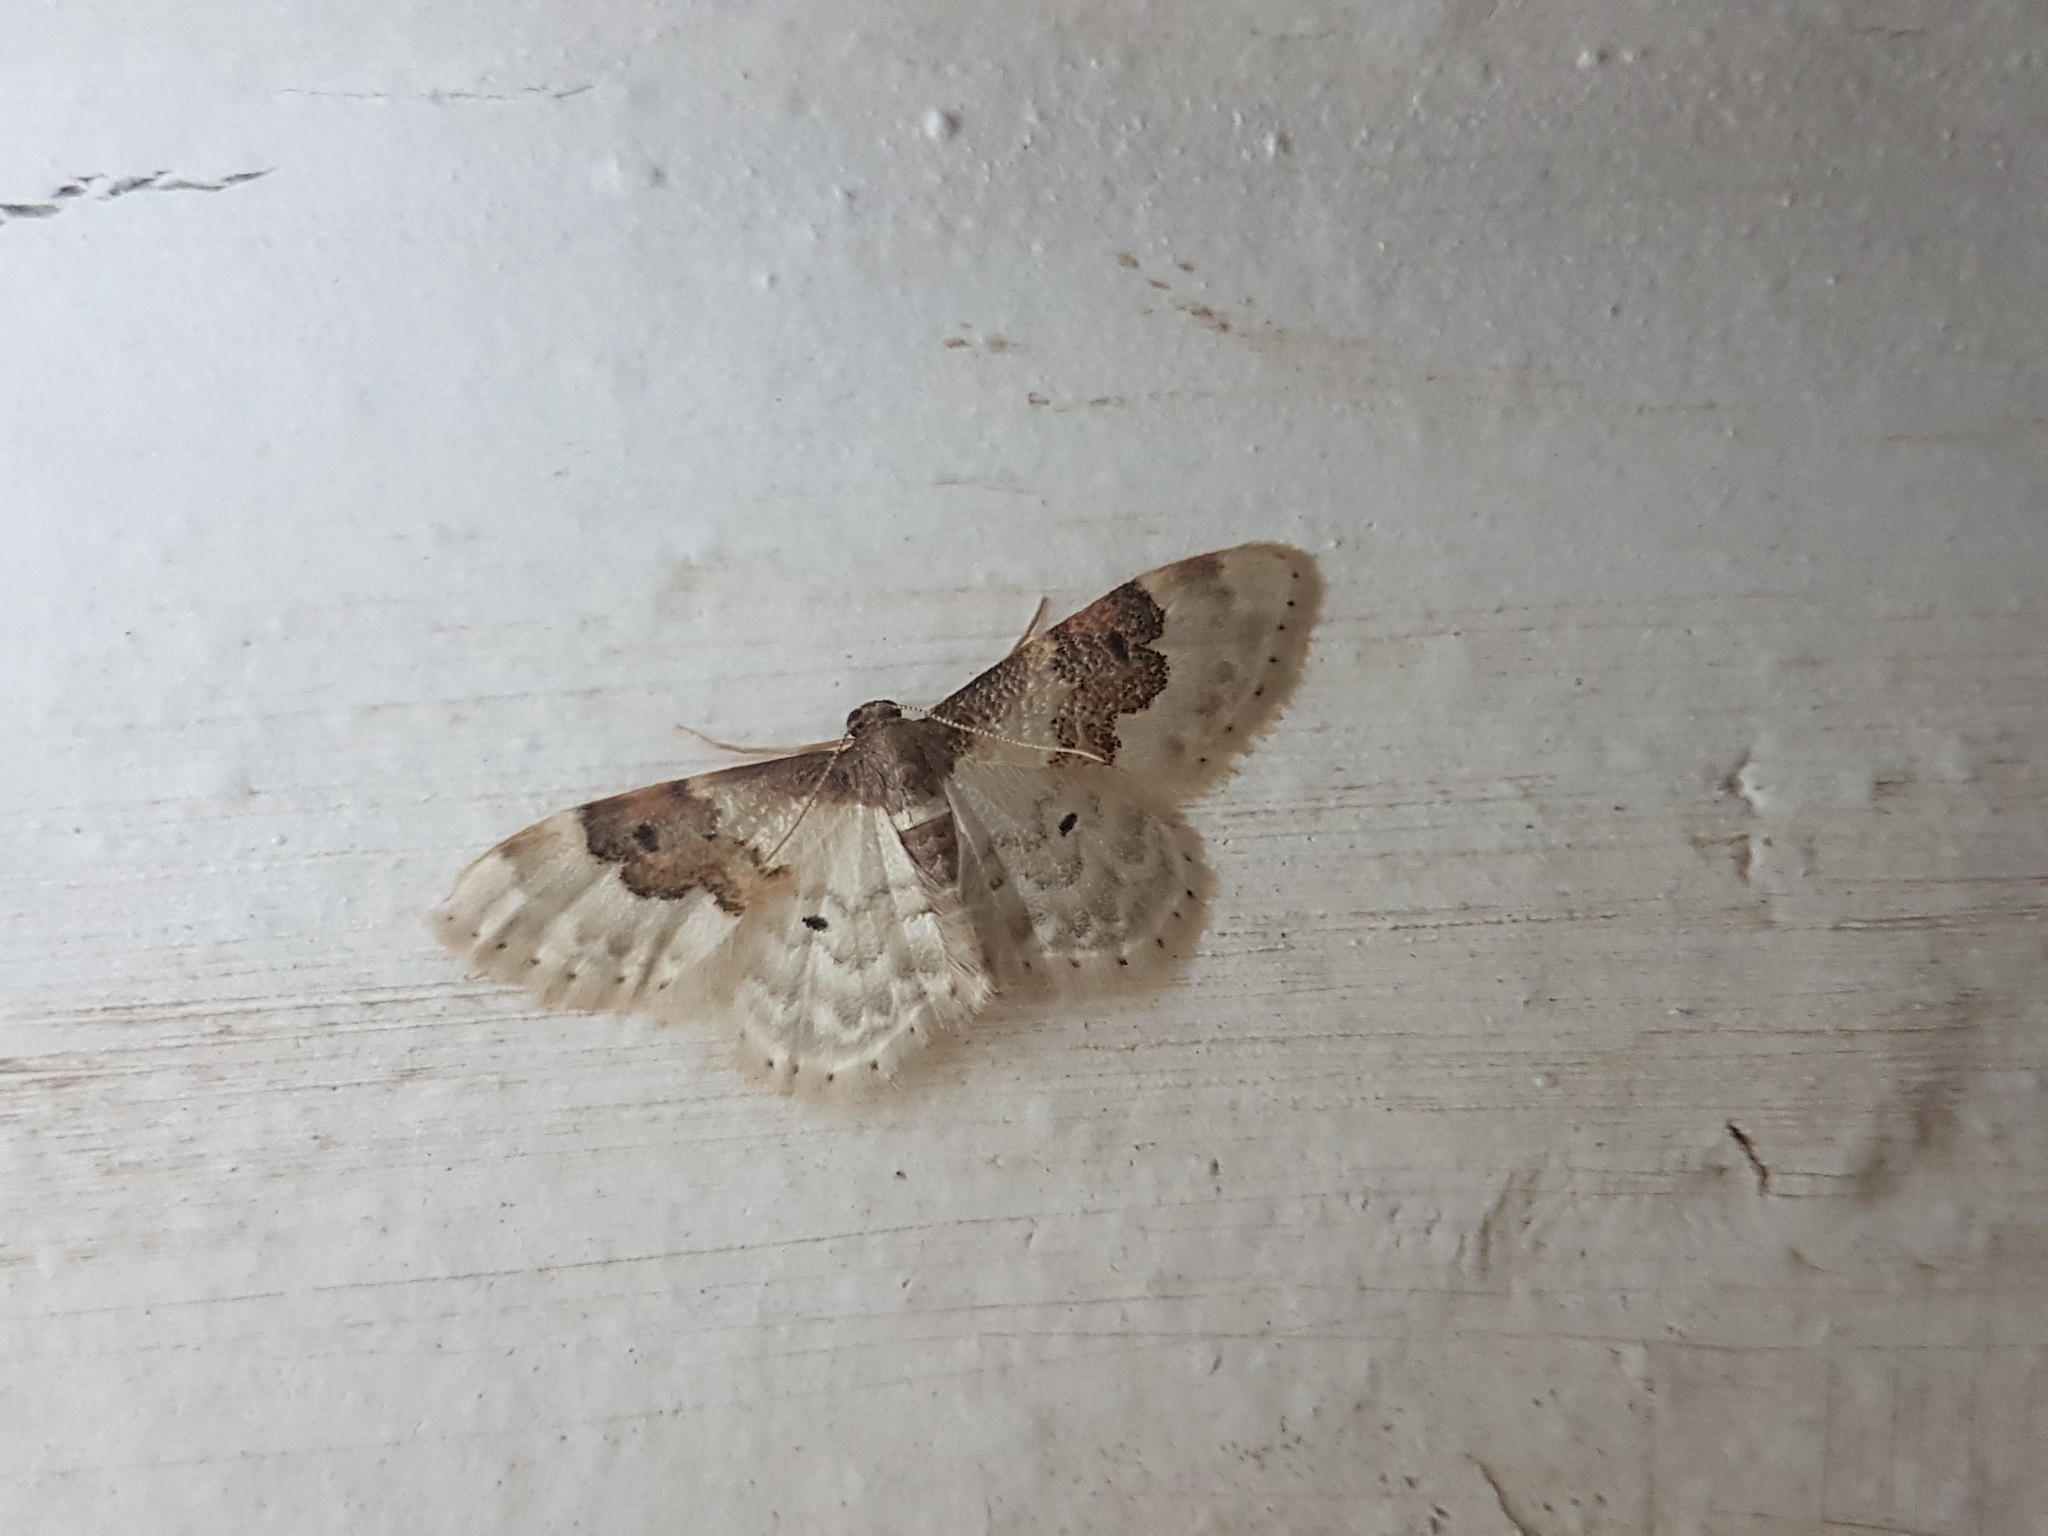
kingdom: Animalia
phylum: Arthropoda
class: Insecta
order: Lepidoptera
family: Geometridae
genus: Idaea
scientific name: Idaea rusticata
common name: Least carpet
